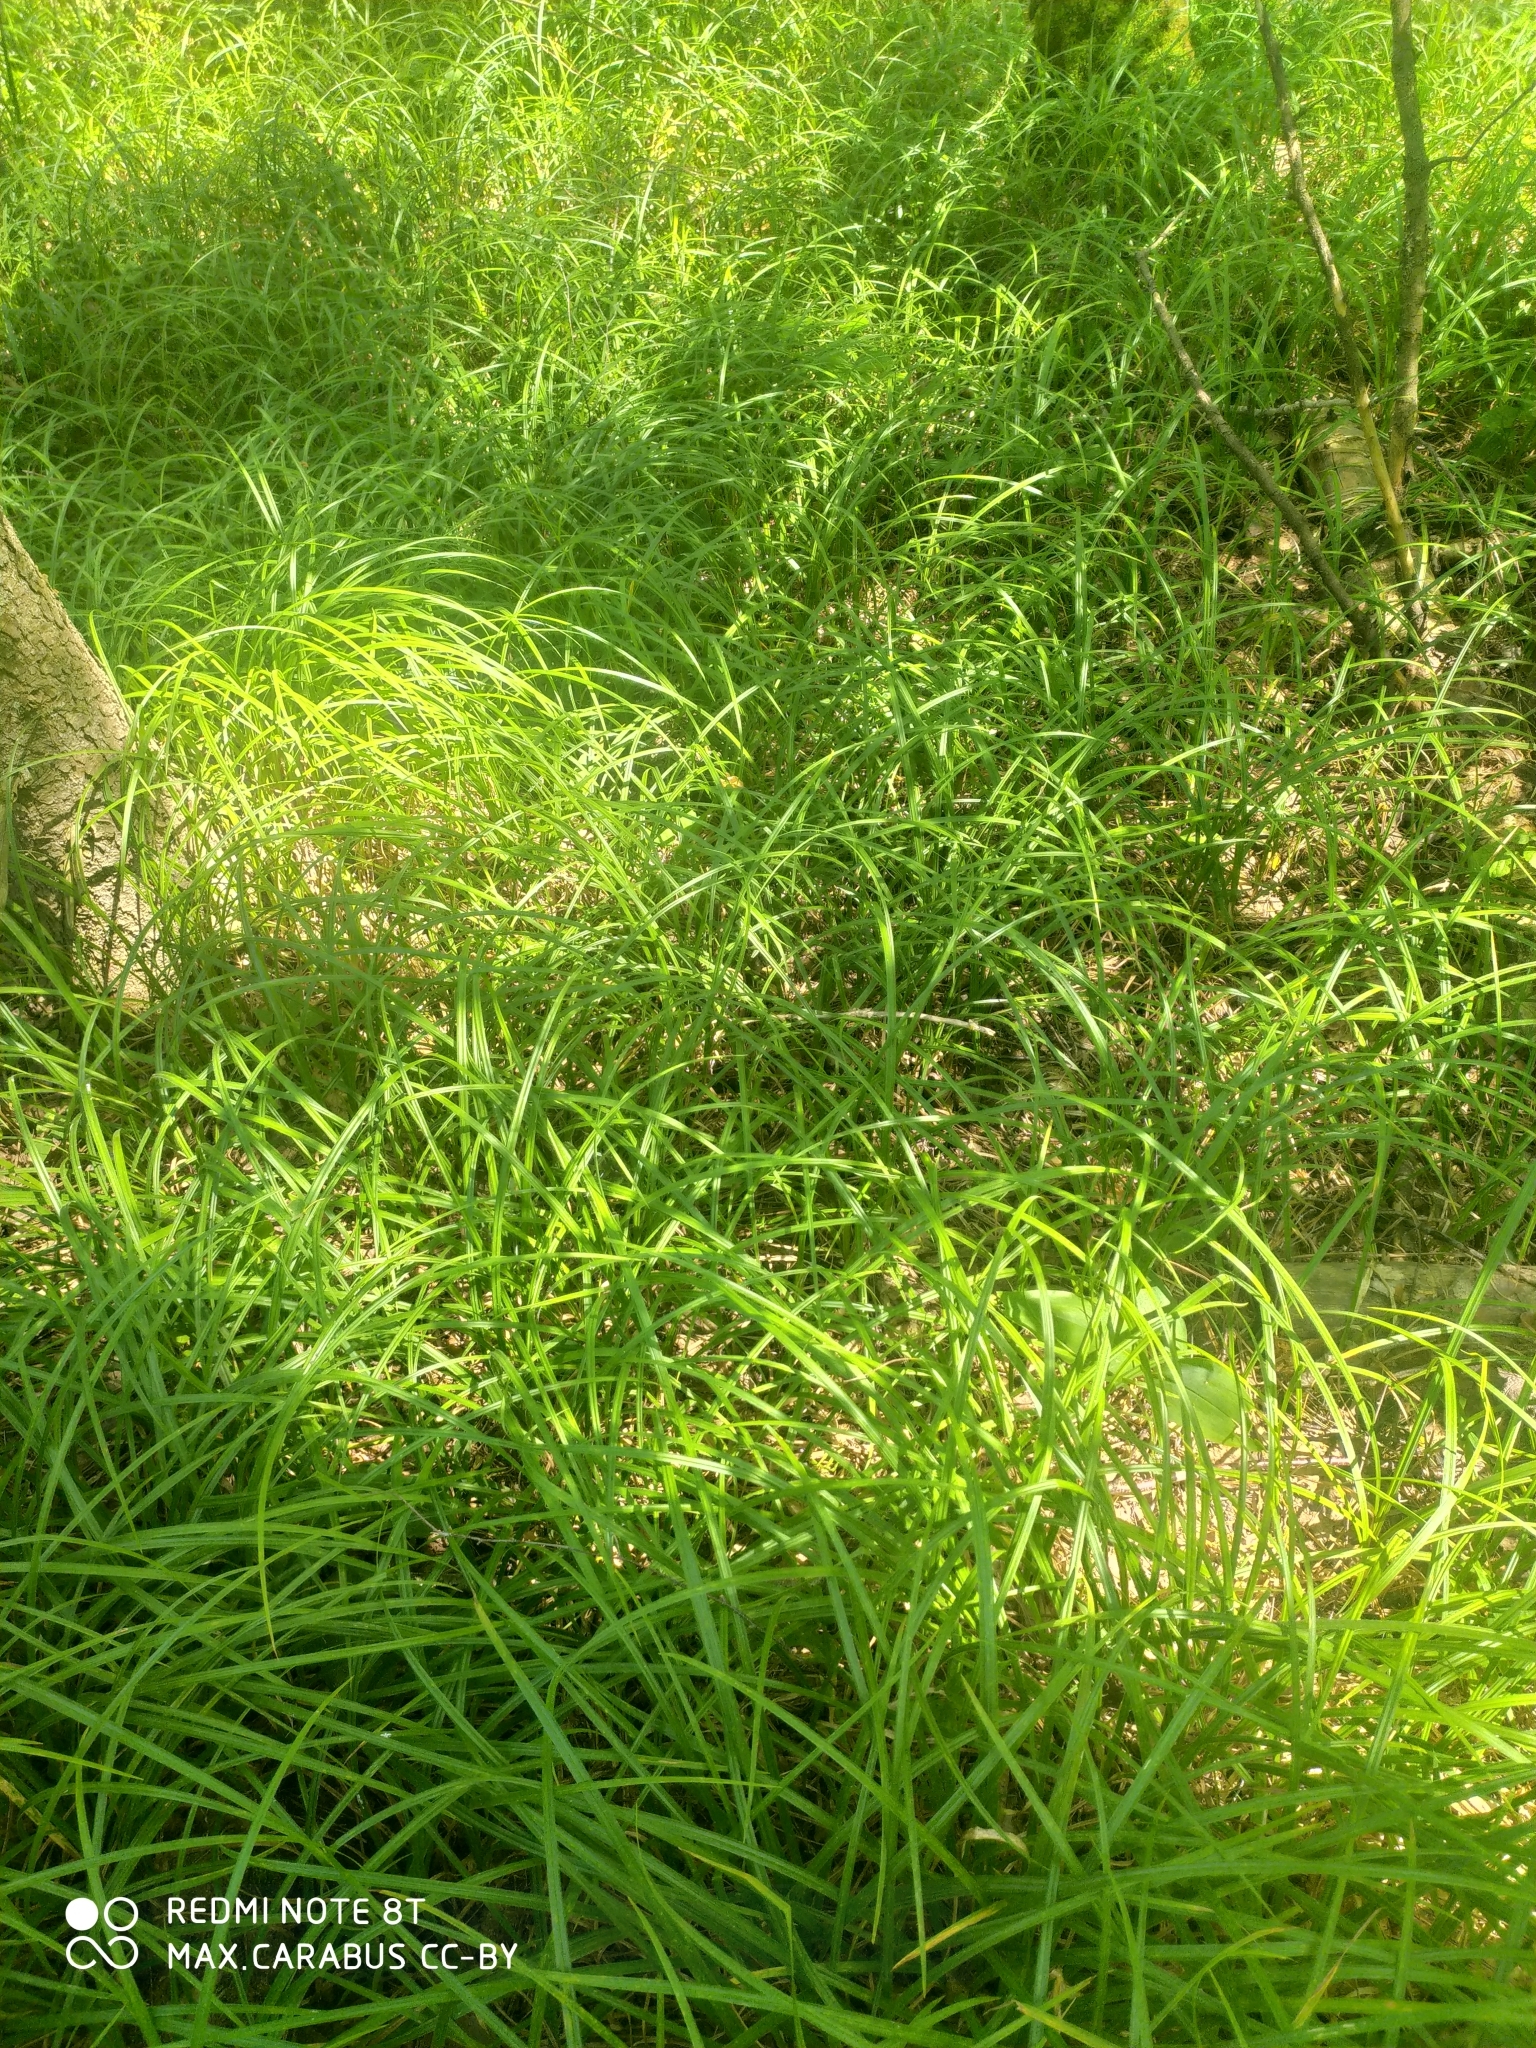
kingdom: Plantae
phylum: Tracheophyta
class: Liliopsida
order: Poales
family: Cyperaceae
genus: Carex
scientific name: Carex pilosa
